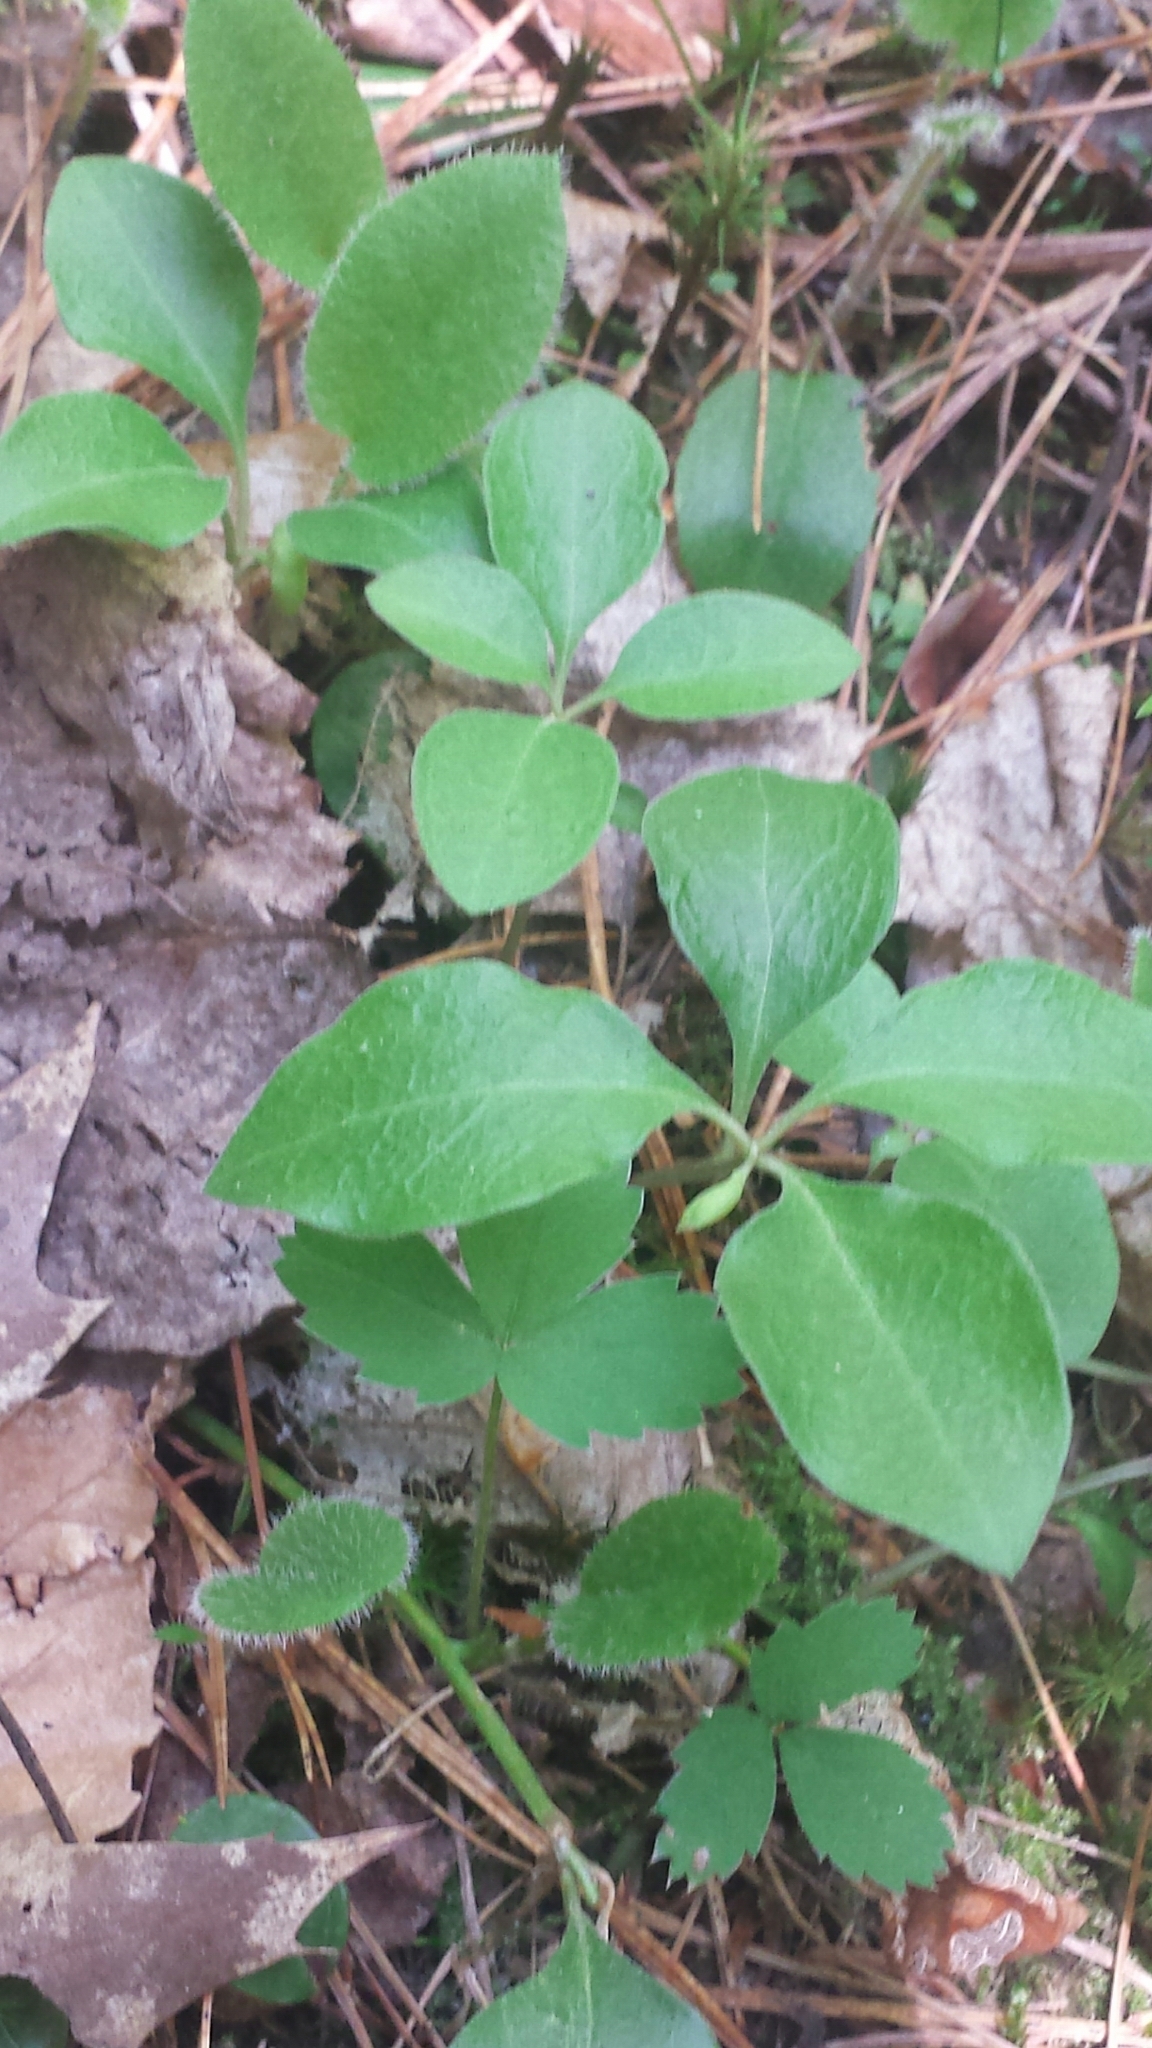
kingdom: Plantae
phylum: Tracheophyta
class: Magnoliopsida
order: Fabales
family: Polygalaceae
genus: Polygaloides
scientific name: Polygaloides paucifolia
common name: Bird-on-the-wing
